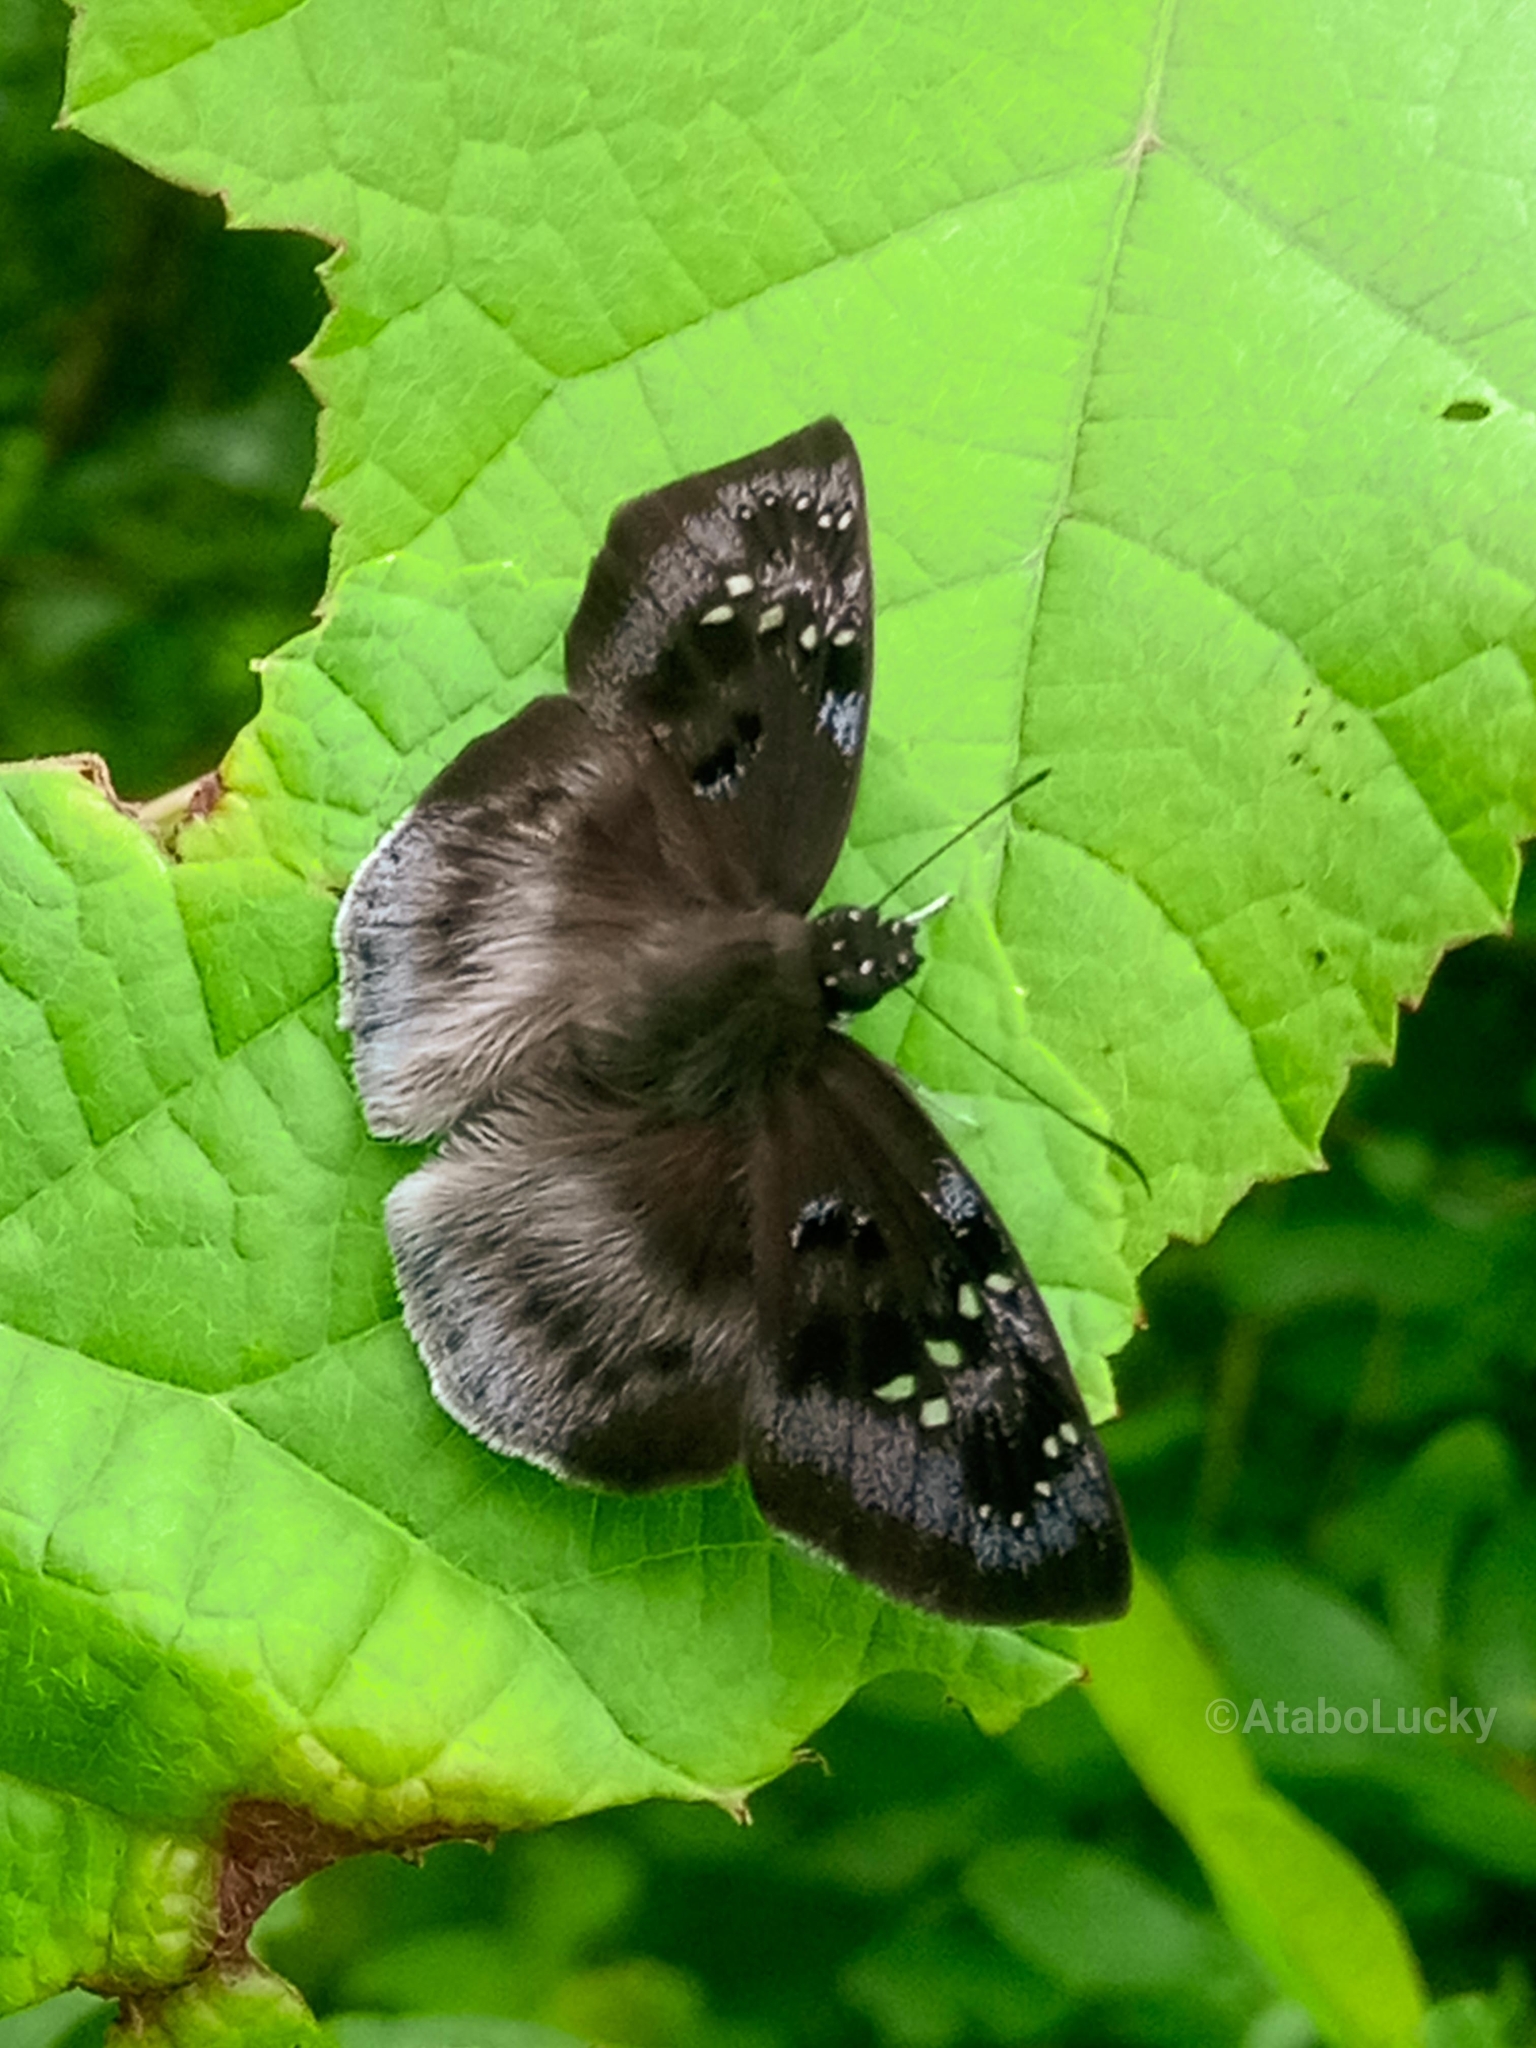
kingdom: Animalia
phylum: Arthropoda
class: Insecta
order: Lepidoptera
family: Hesperiidae
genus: Tagiades
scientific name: Tagiades flesus
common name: Clouded flat
